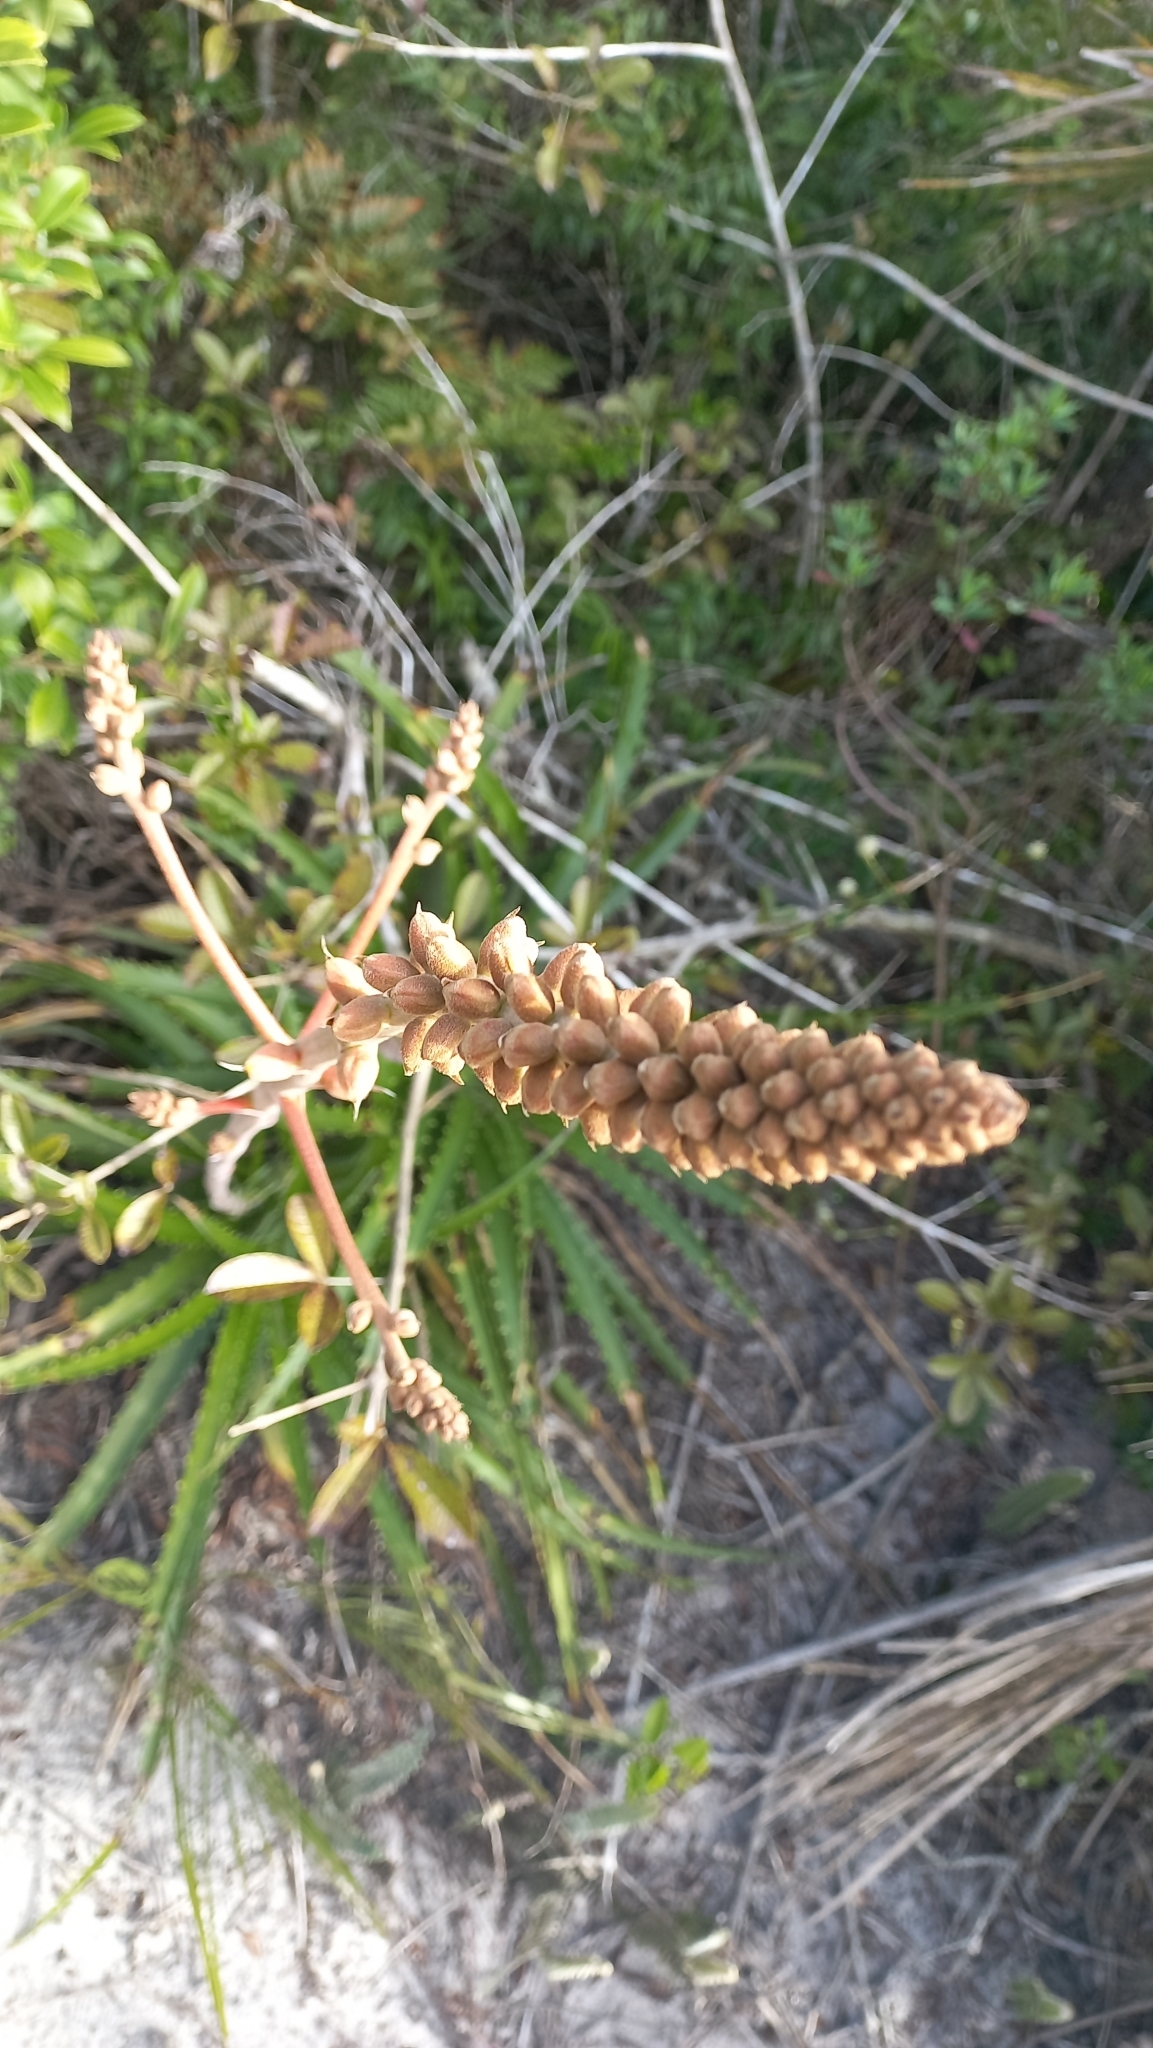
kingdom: Plantae
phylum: Tracheophyta
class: Liliopsida
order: Poales
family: Bromeliaceae
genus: Dyckia
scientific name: Dyckia encholirioides
